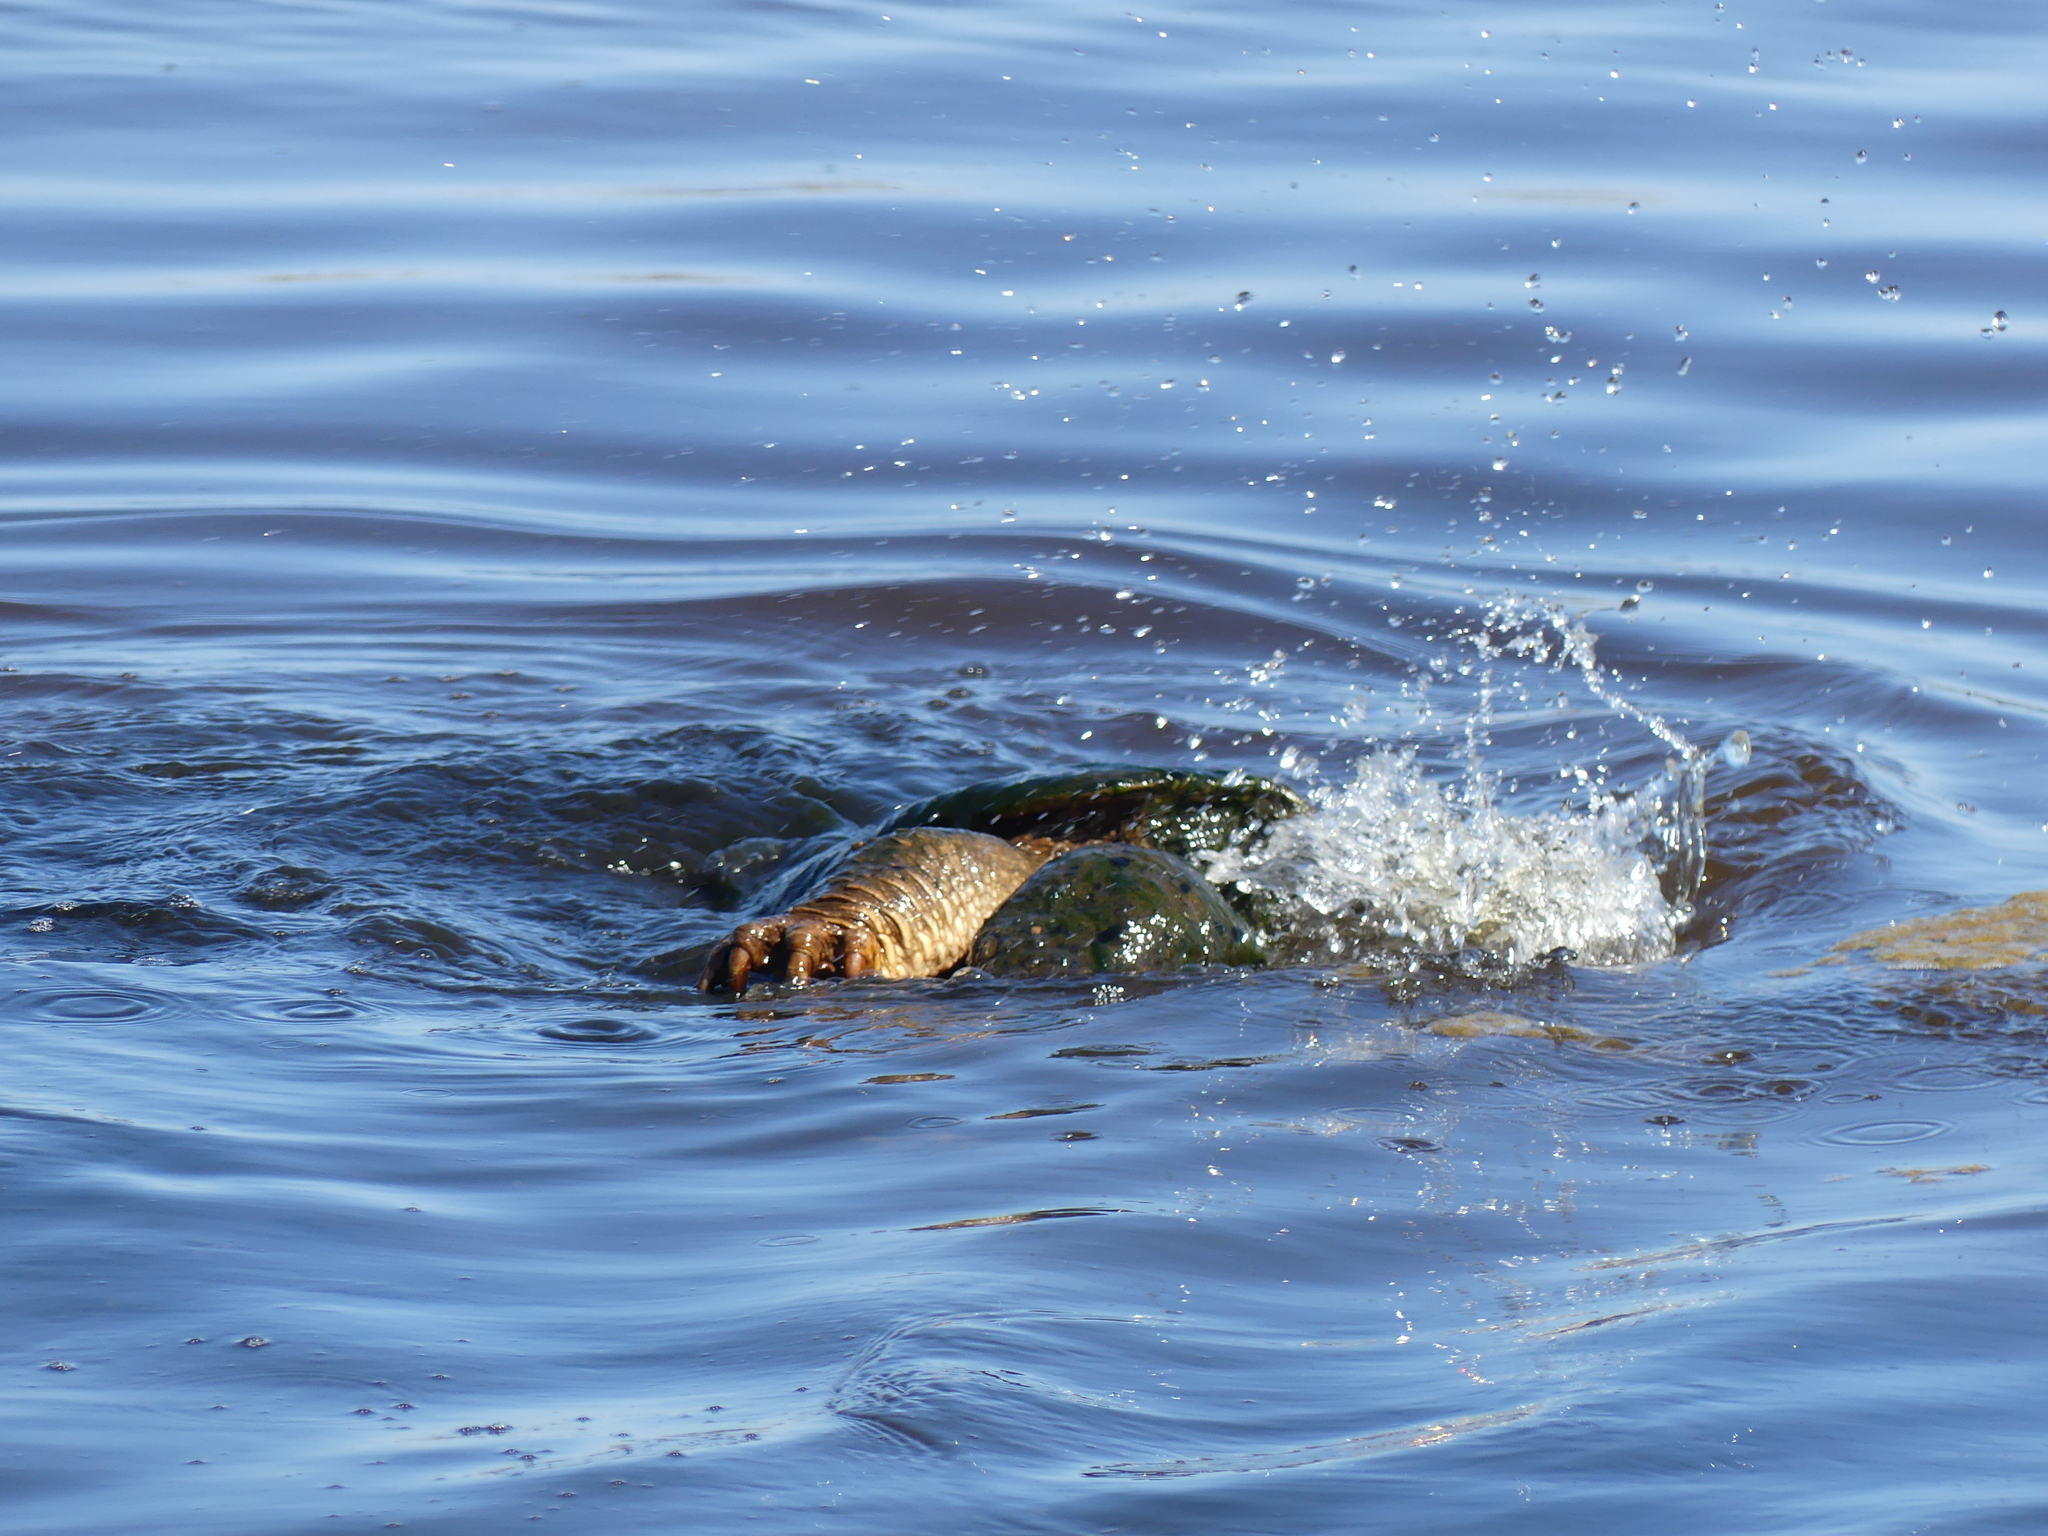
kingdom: Animalia
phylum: Chordata
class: Testudines
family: Chelydridae
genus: Chelydra
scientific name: Chelydra serpentina
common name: Common snapping turtle
